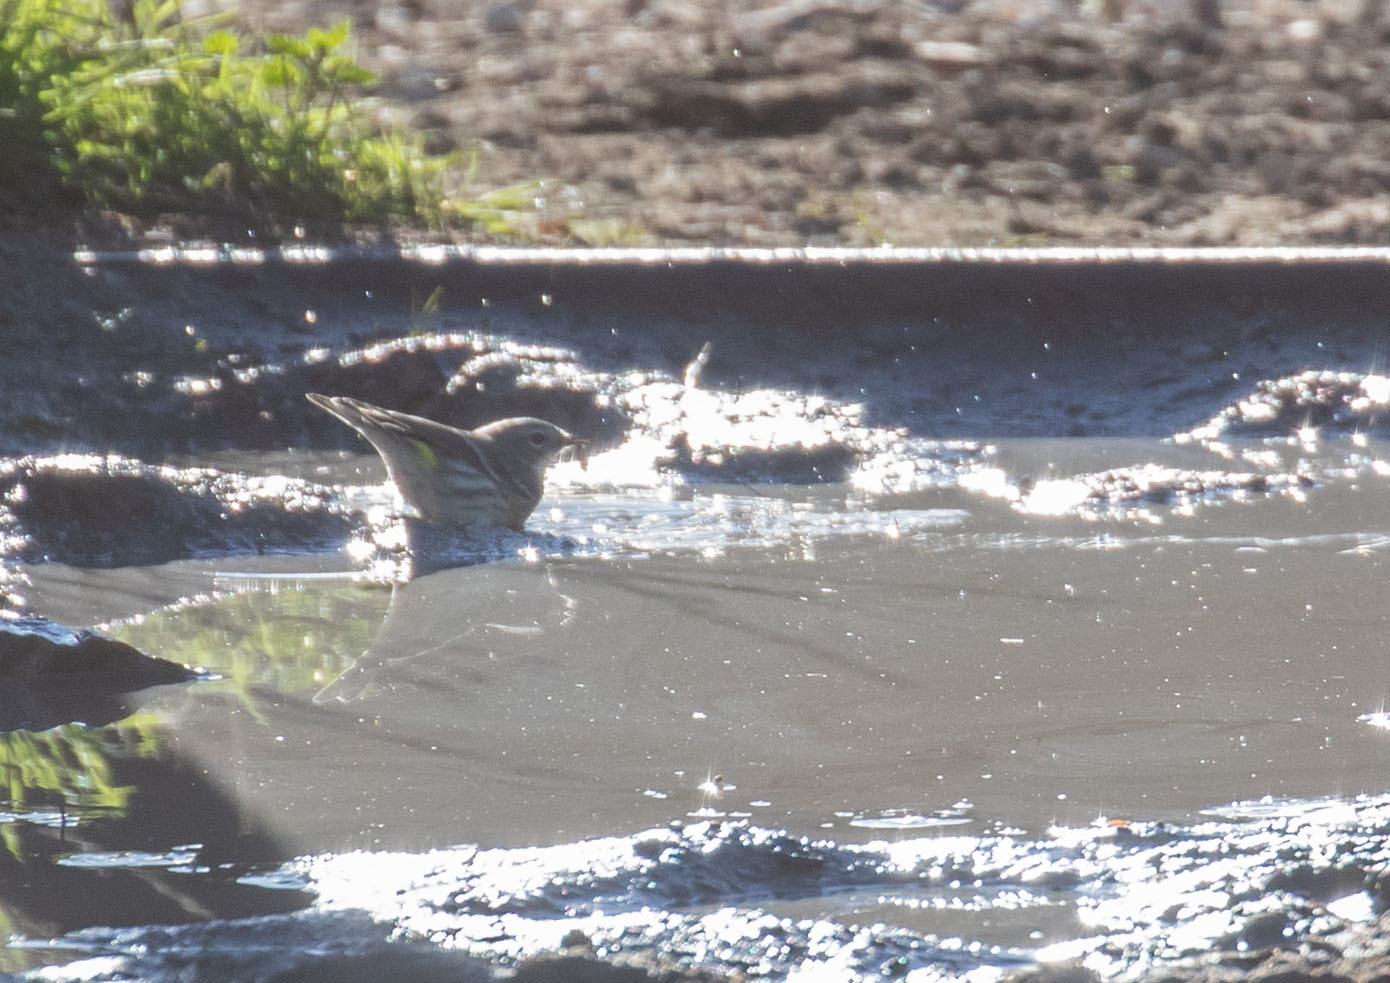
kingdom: Animalia
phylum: Chordata
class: Aves
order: Passeriformes
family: Parulidae
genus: Setophaga
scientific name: Setophaga coronata
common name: Myrtle warbler
